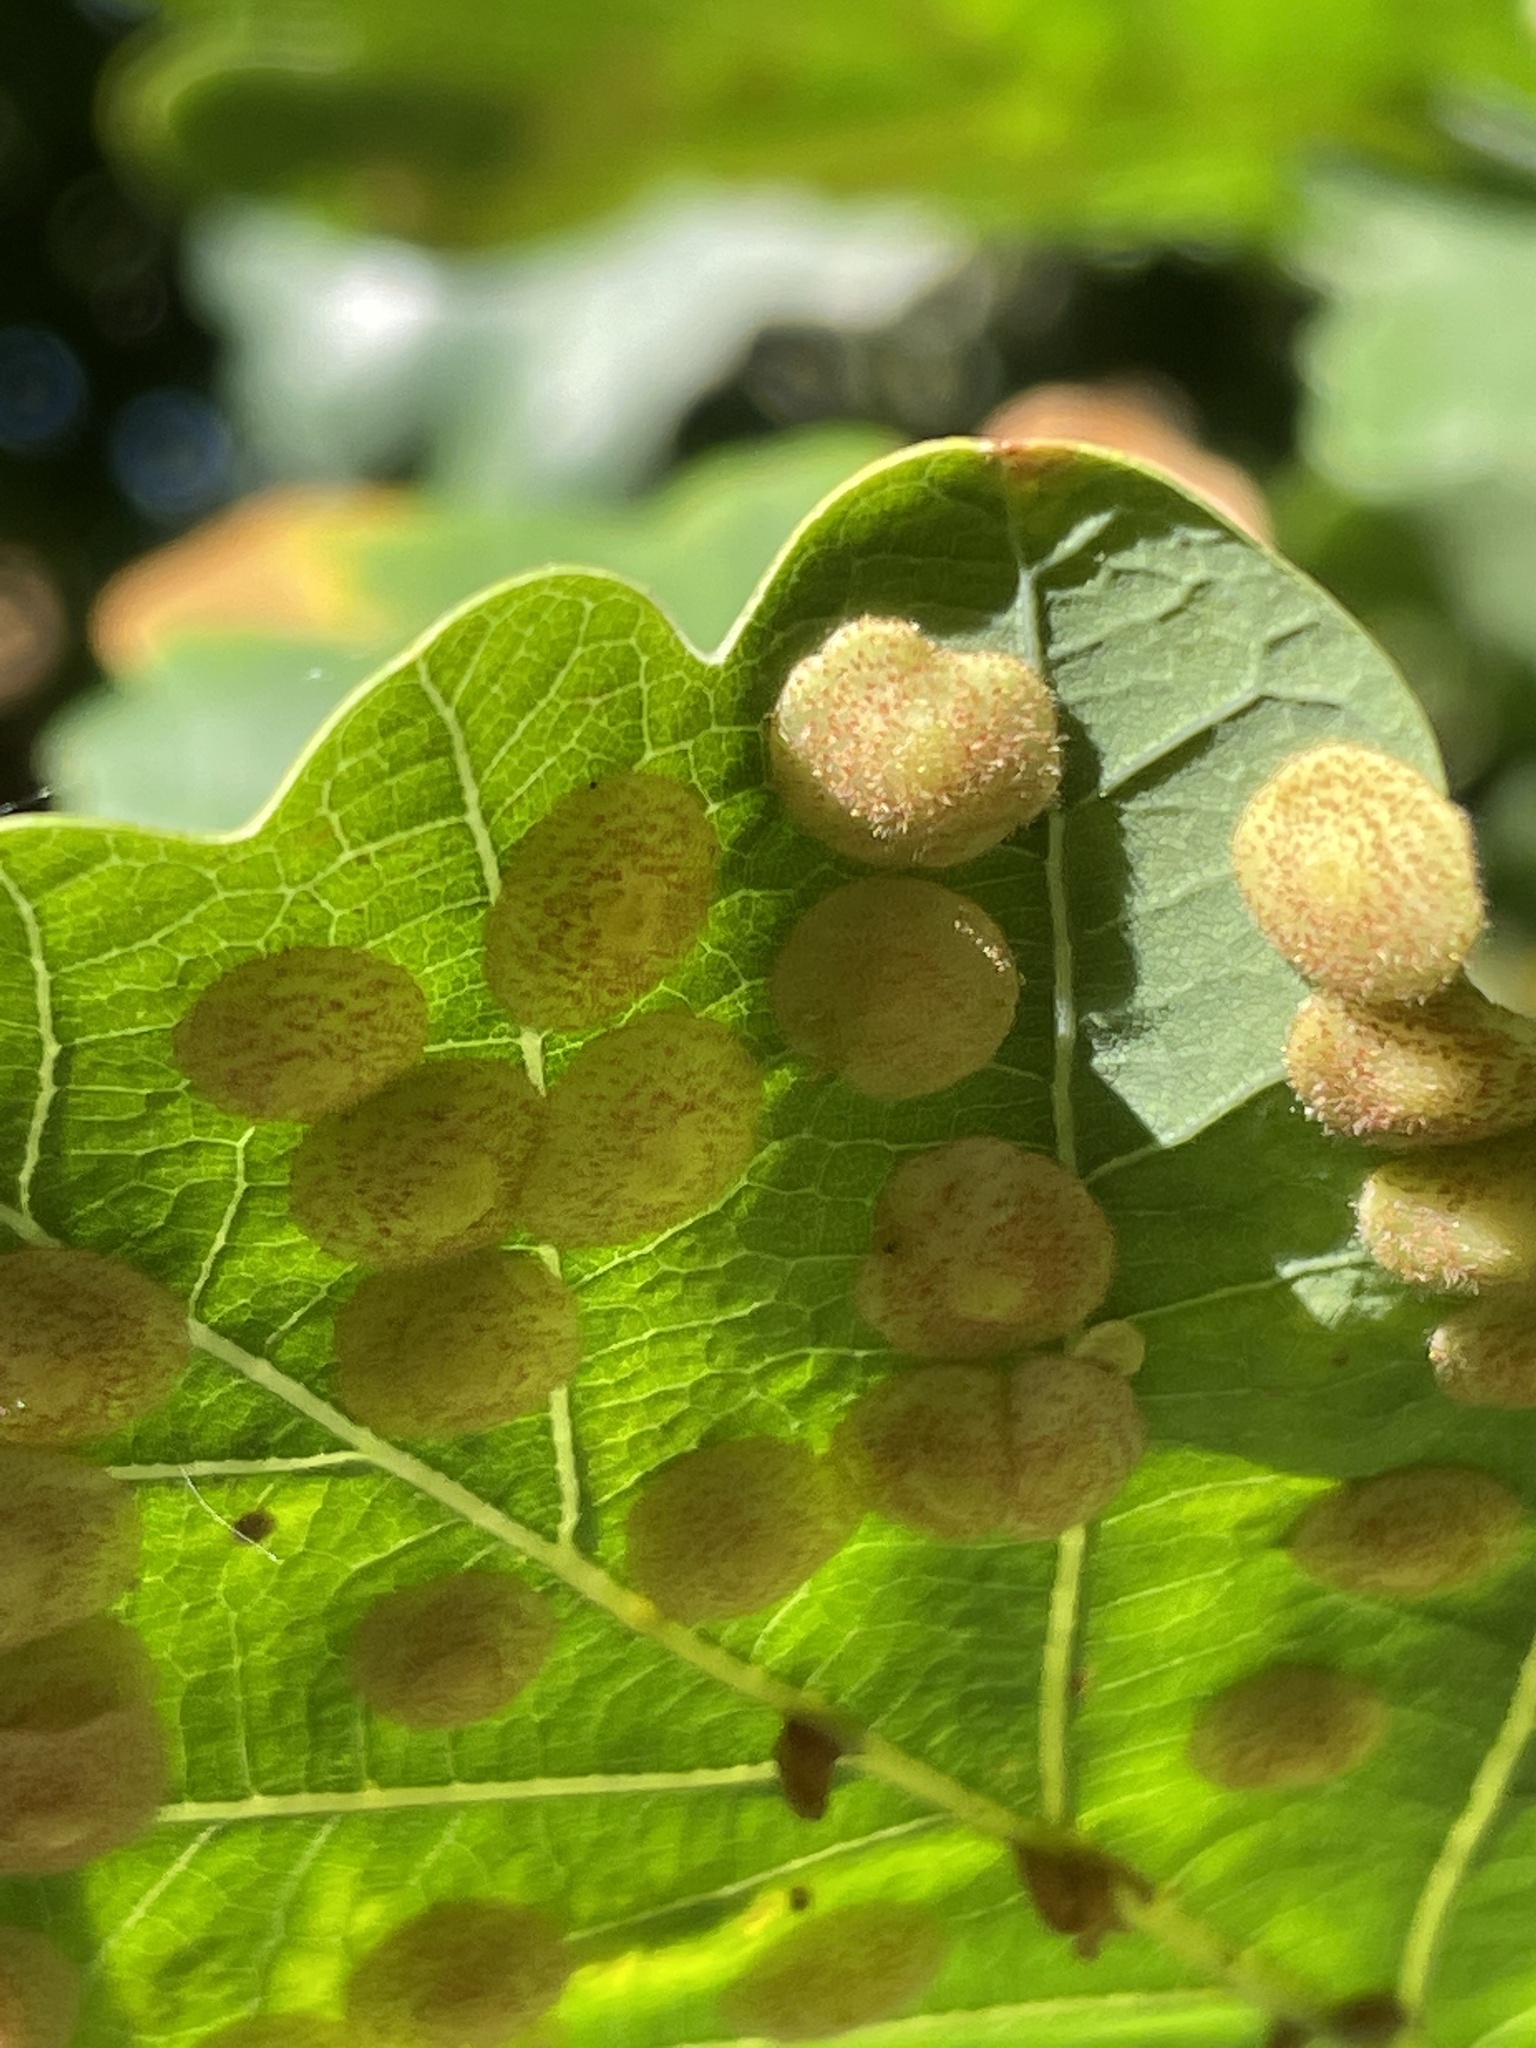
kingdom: Animalia
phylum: Arthropoda
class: Insecta
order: Hymenoptera
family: Cynipidae
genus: Neuroterus
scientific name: Neuroterus quercusbaccarum
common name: Common spangle gall
